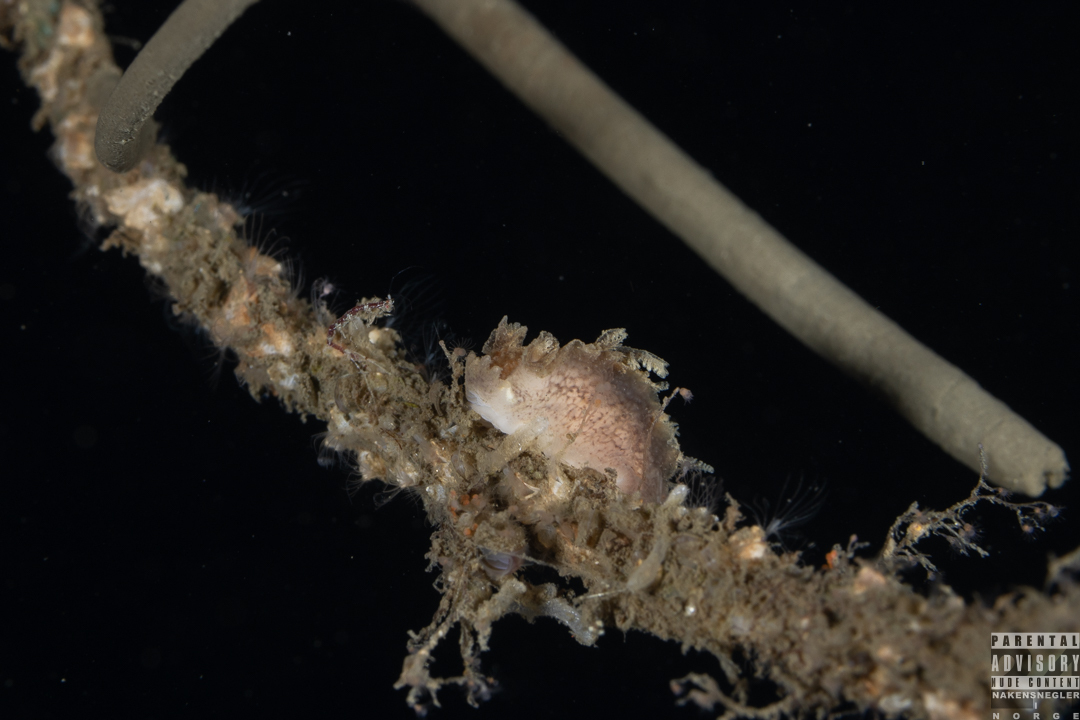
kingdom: Animalia
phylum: Mollusca
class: Gastropoda
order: Nudibranchia
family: Tritoniidae
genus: Duvaucelia
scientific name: Duvaucelia plebeia
